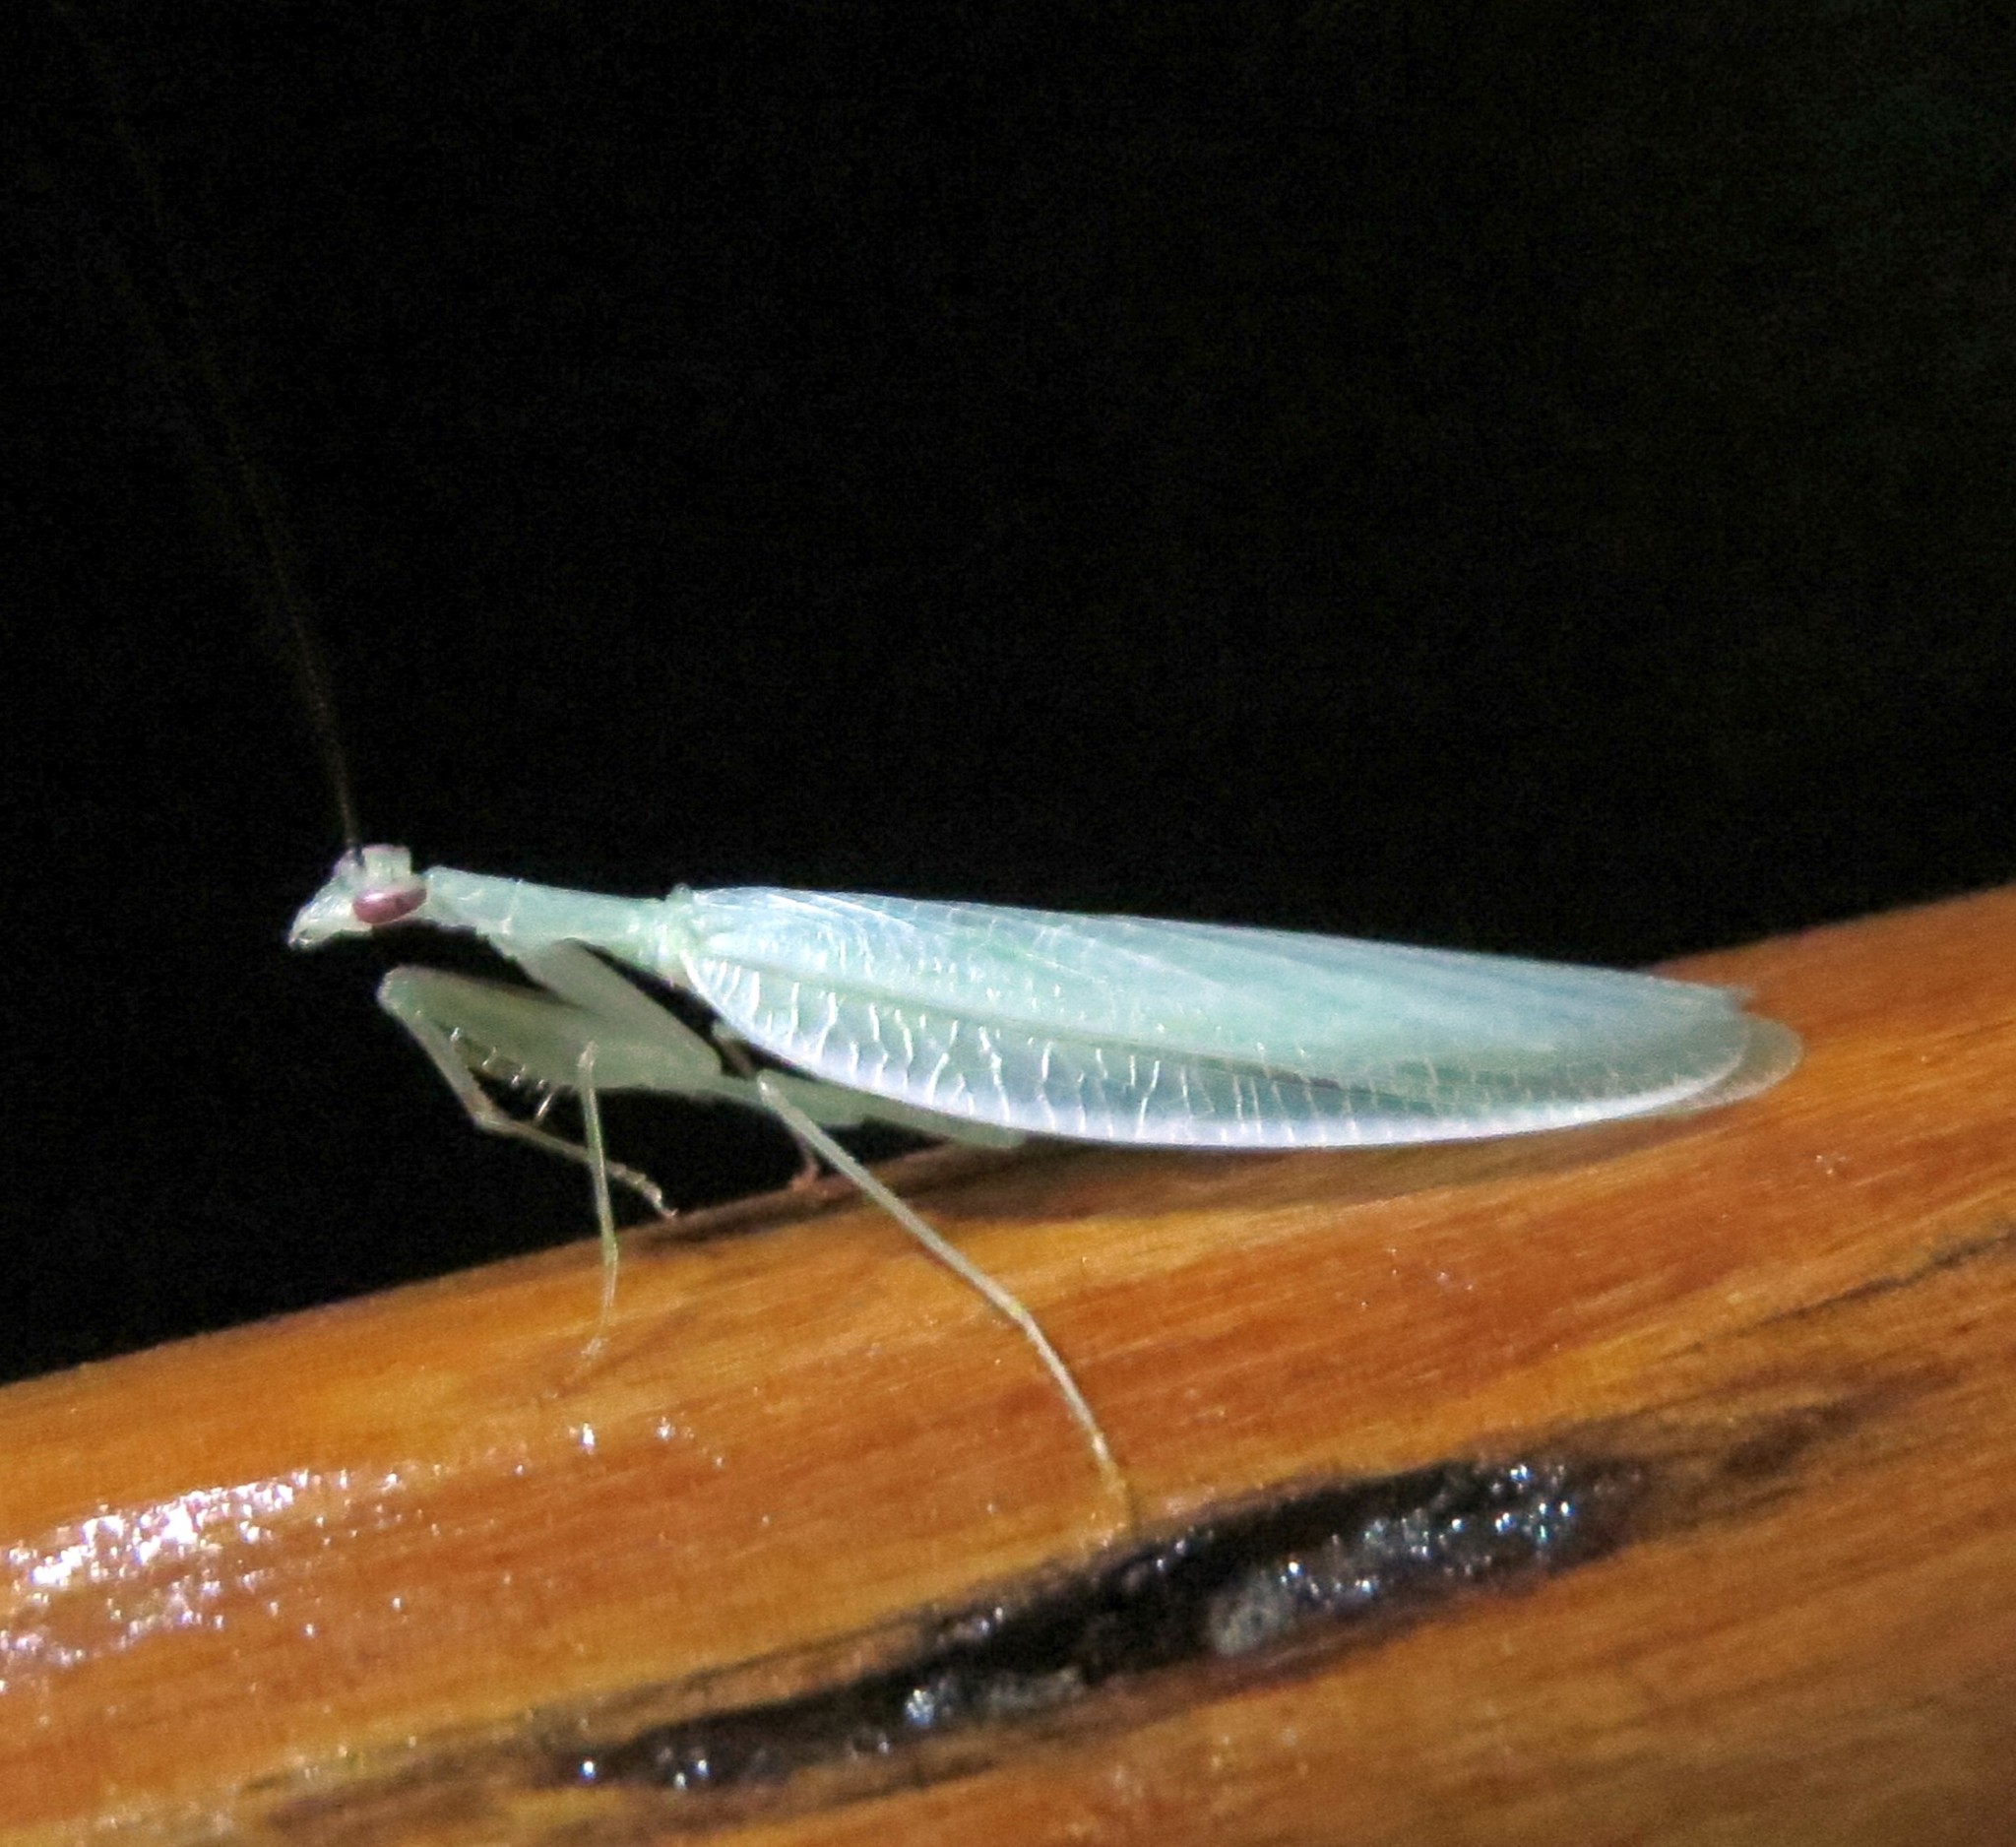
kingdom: Animalia
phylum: Arthropoda
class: Insecta
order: Mantodea
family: Nanomantidae
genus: Platycalymma
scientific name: Platycalymma dichroica
